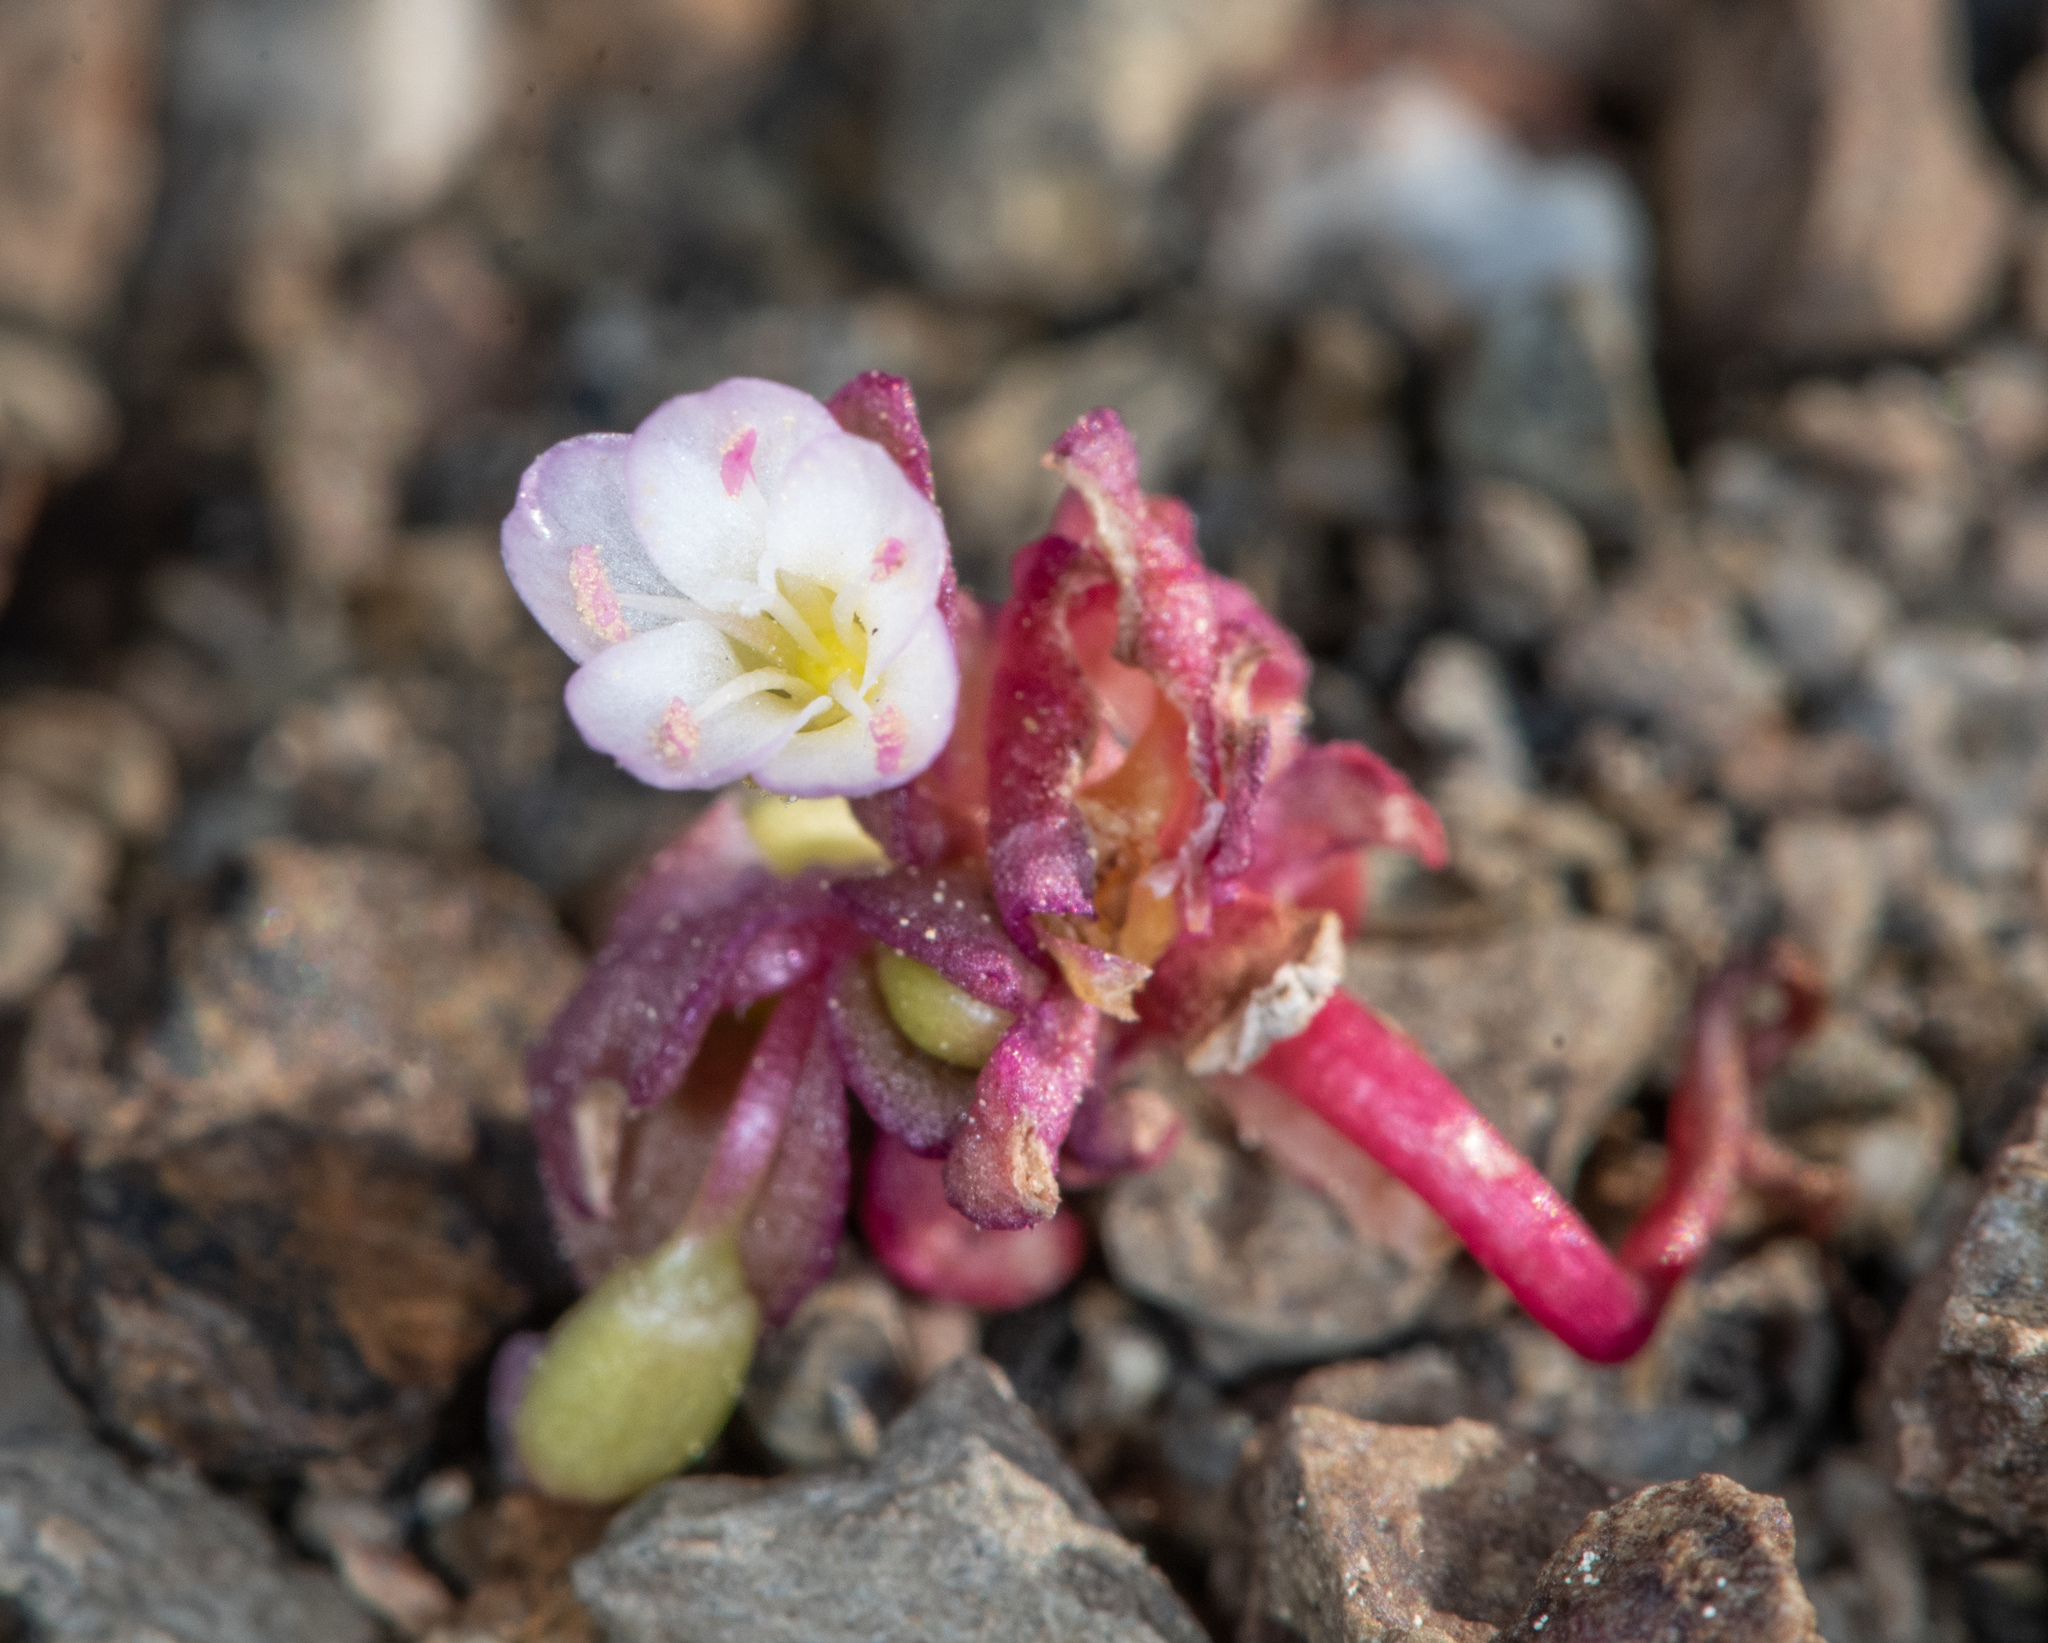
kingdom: Plantae
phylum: Tracheophyta
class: Magnoliopsida
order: Caryophyllales
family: Montiaceae
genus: Claytonia
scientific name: Claytonia saxosa
